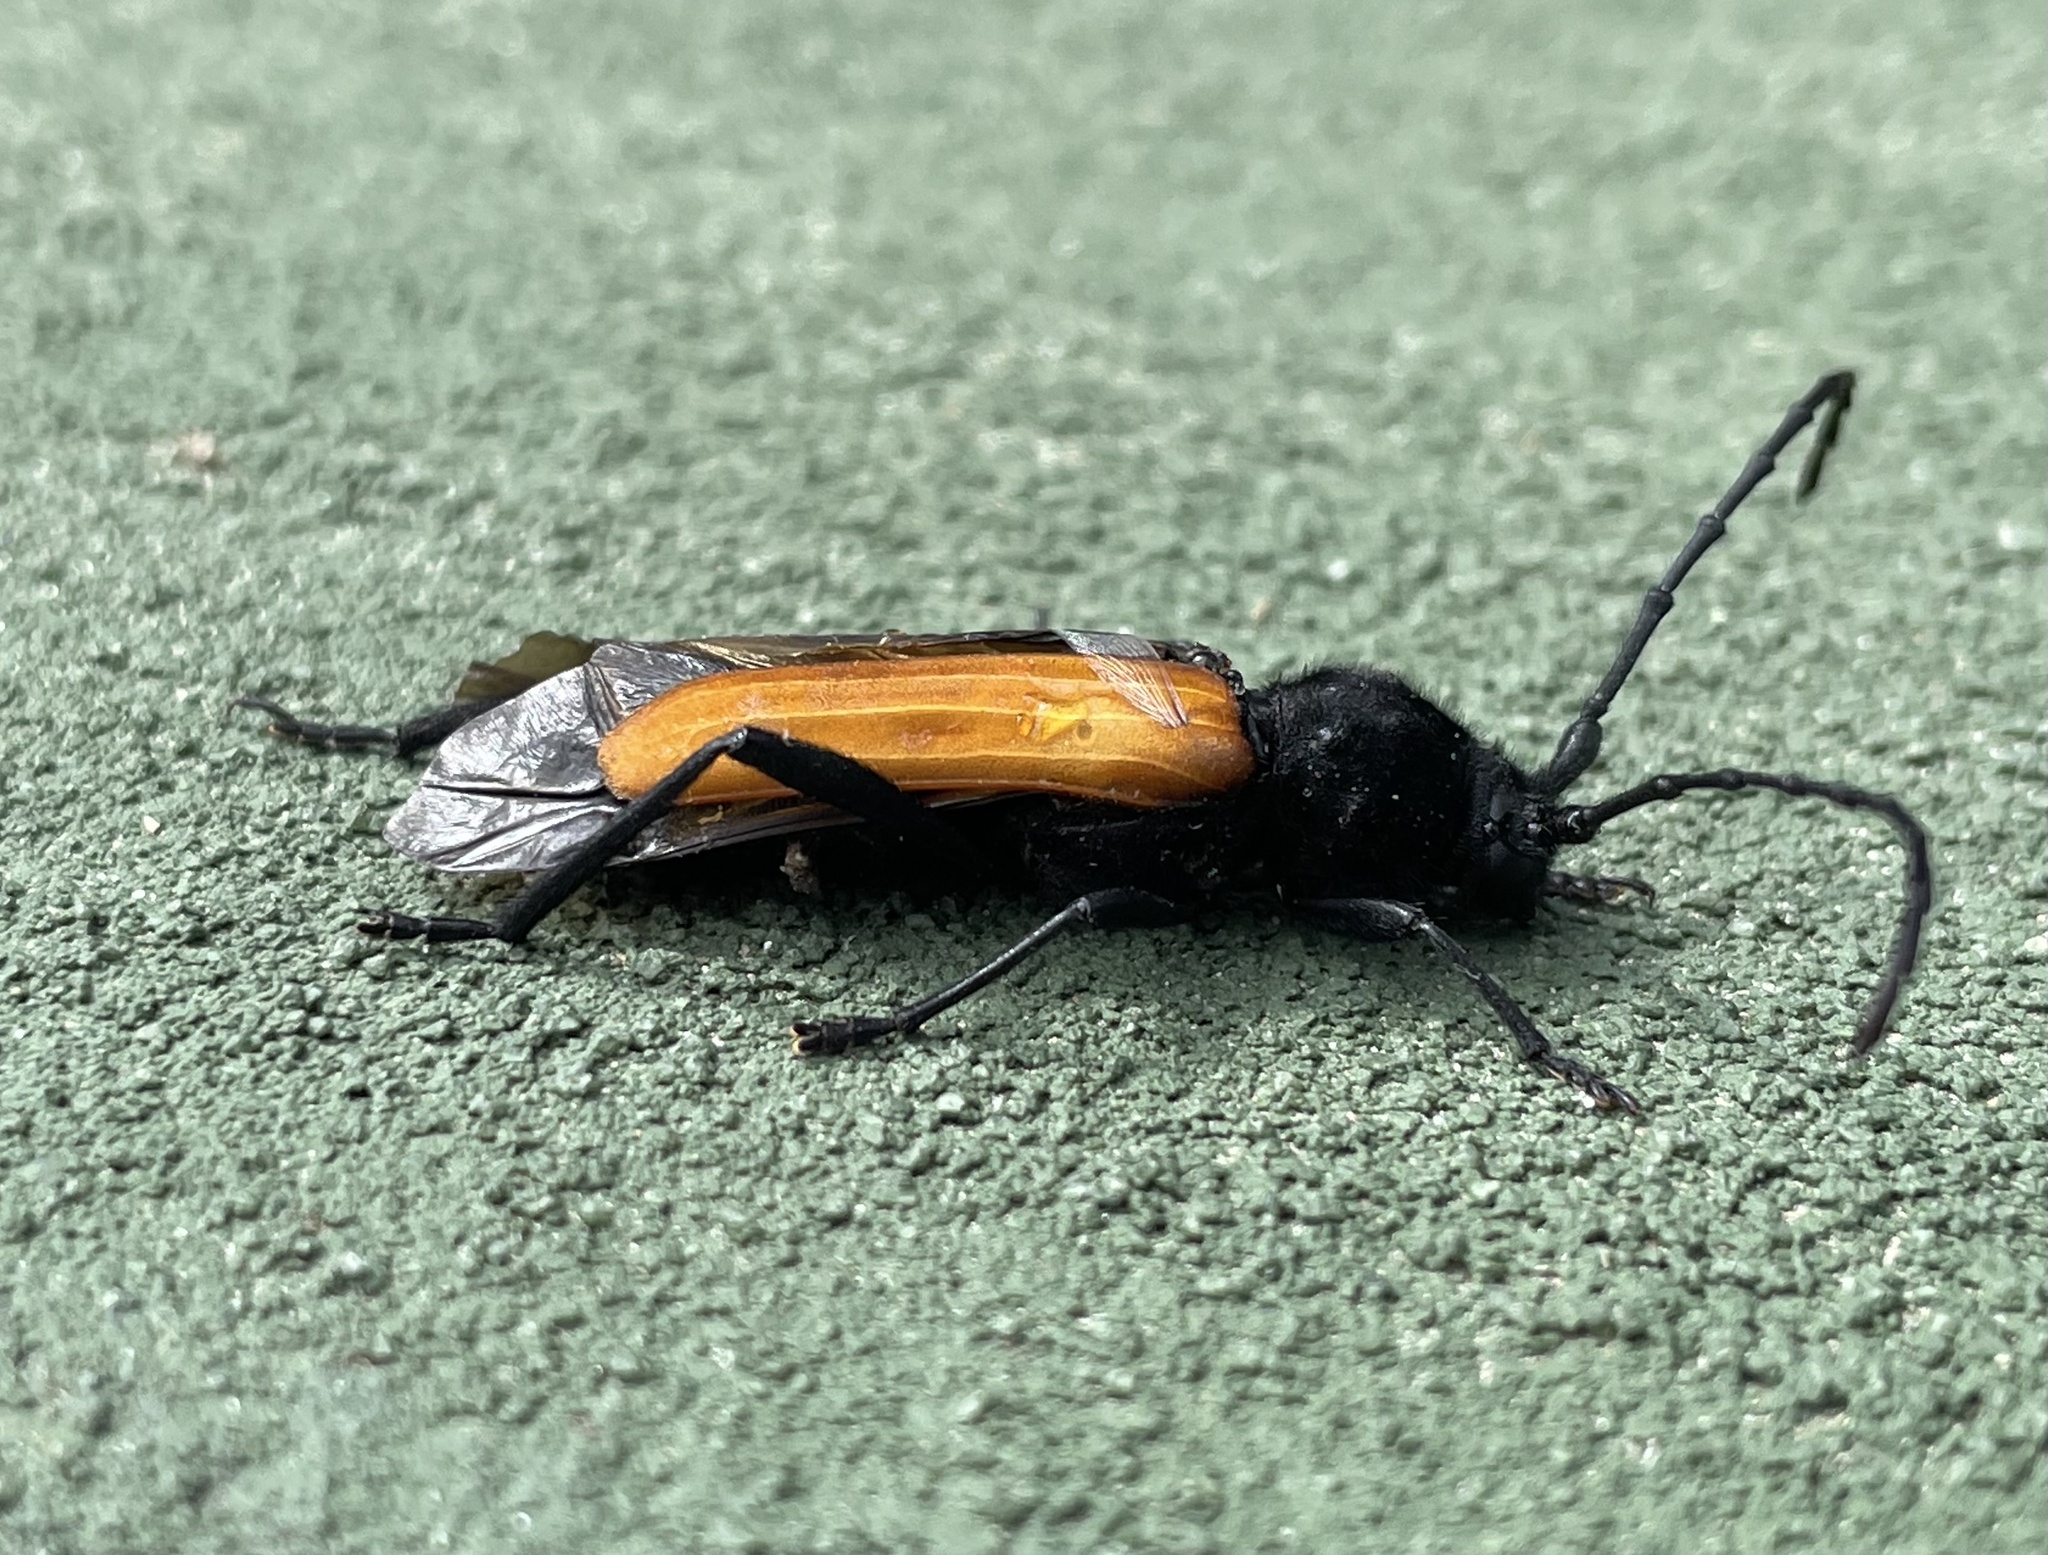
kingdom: Animalia
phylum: Arthropoda
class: Insecta
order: Coleoptera
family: Cerambycidae
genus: Tragidion
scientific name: Tragidion coquus
